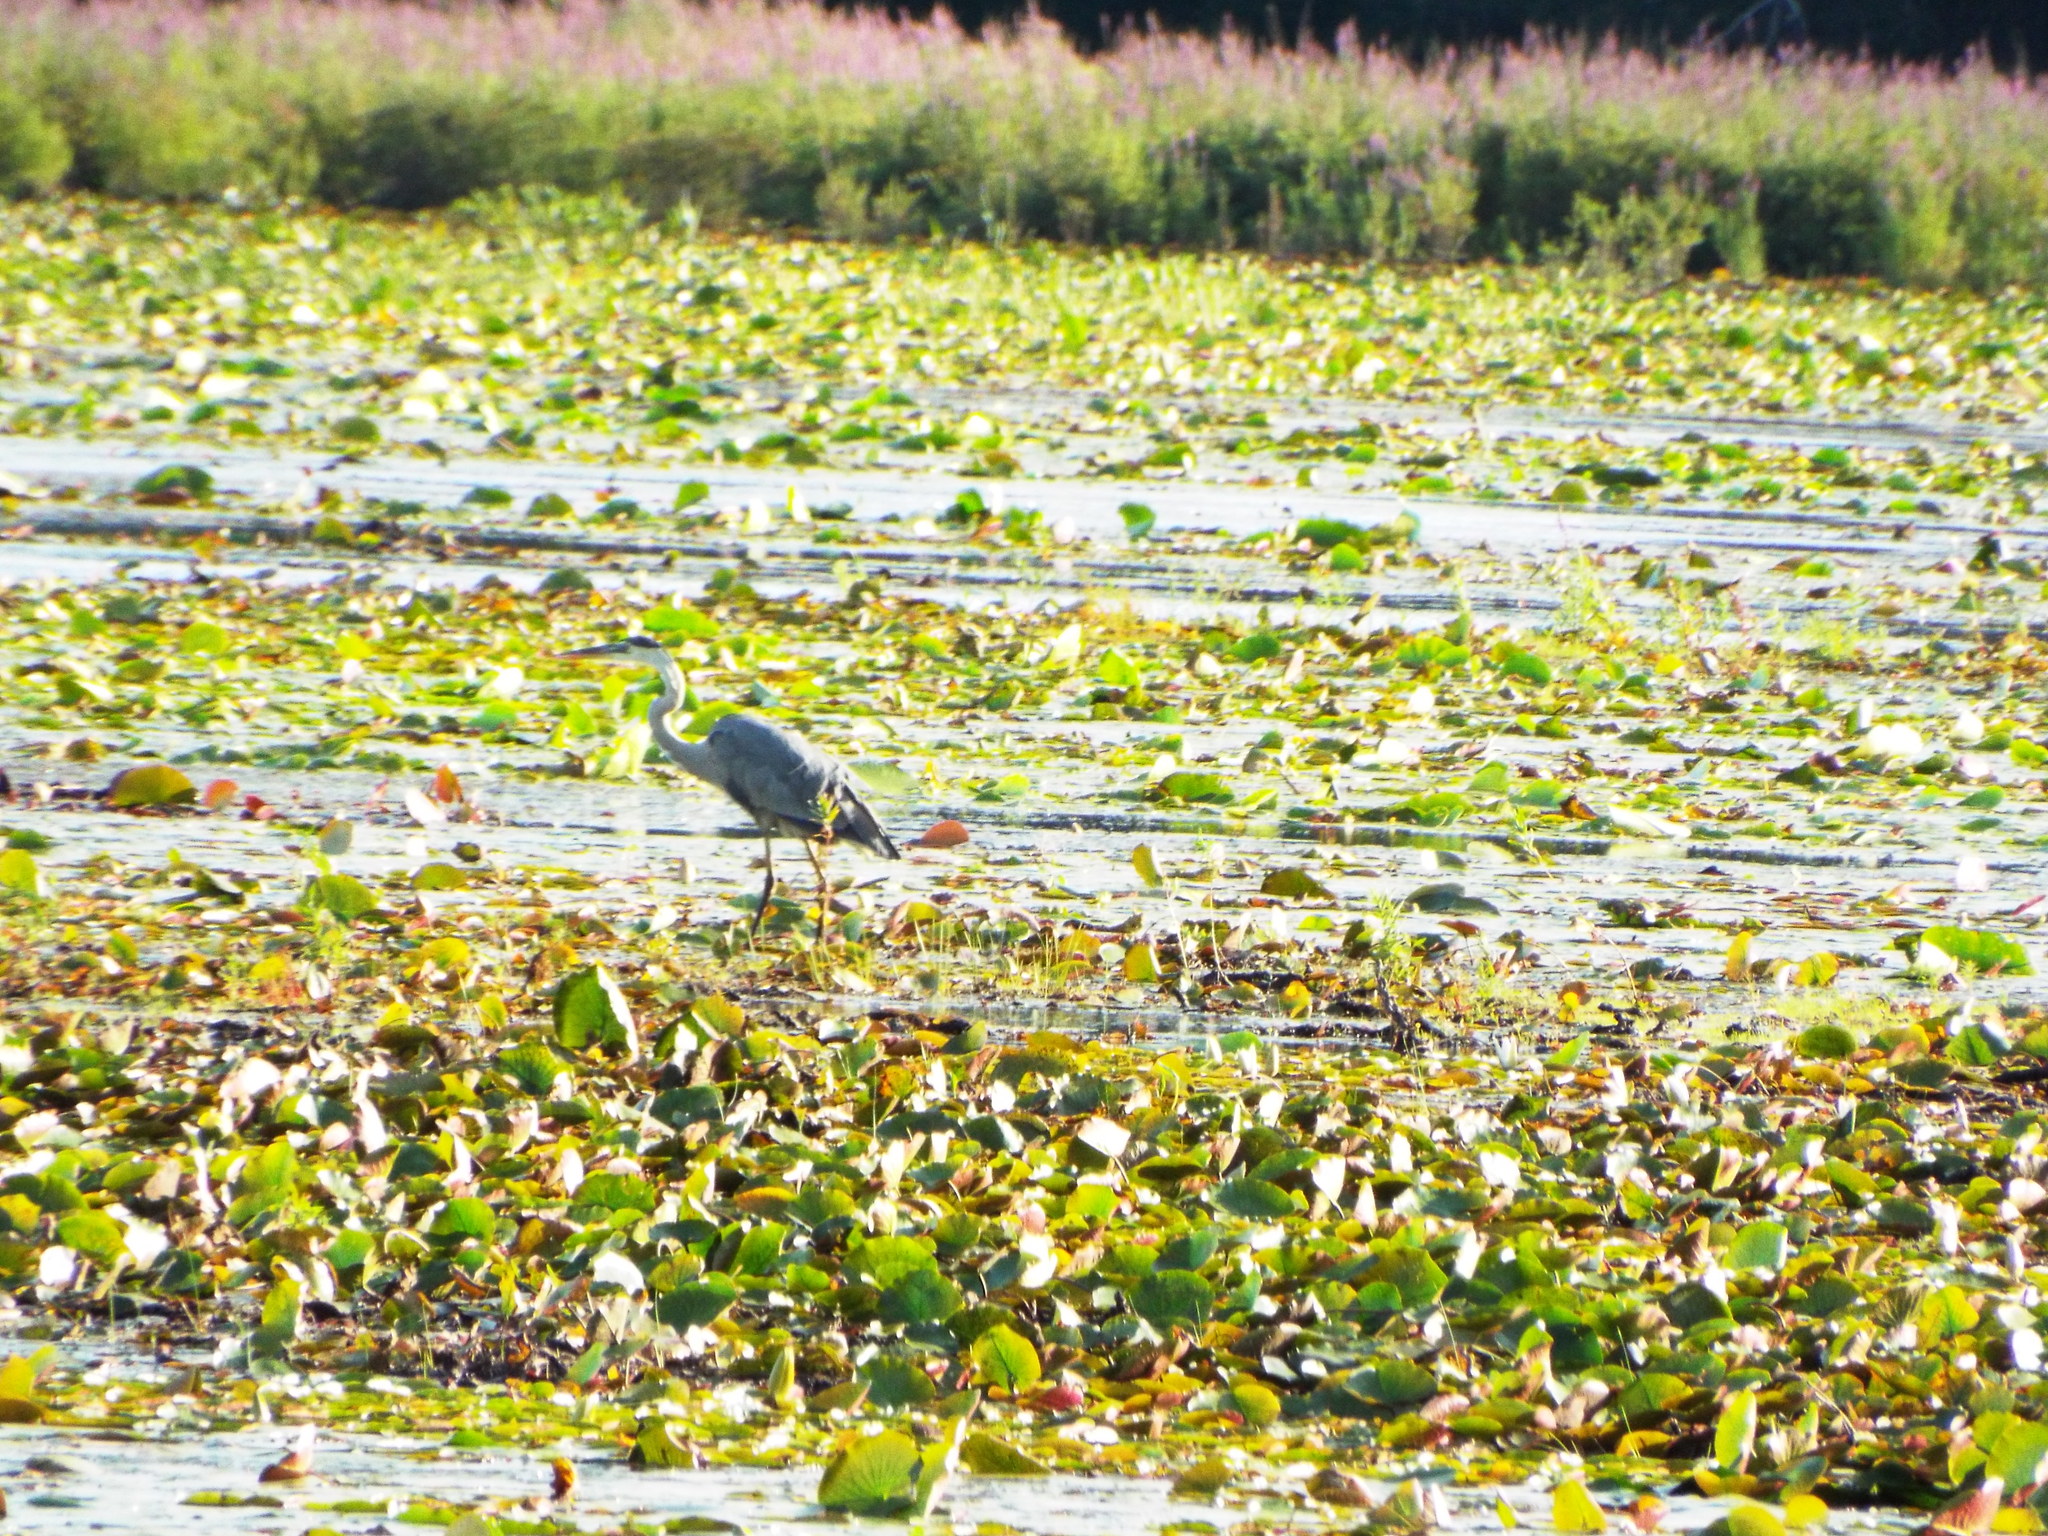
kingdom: Animalia
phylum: Chordata
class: Aves
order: Pelecaniformes
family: Ardeidae
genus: Ardea
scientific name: Ardea herodias
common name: Great blue heron
